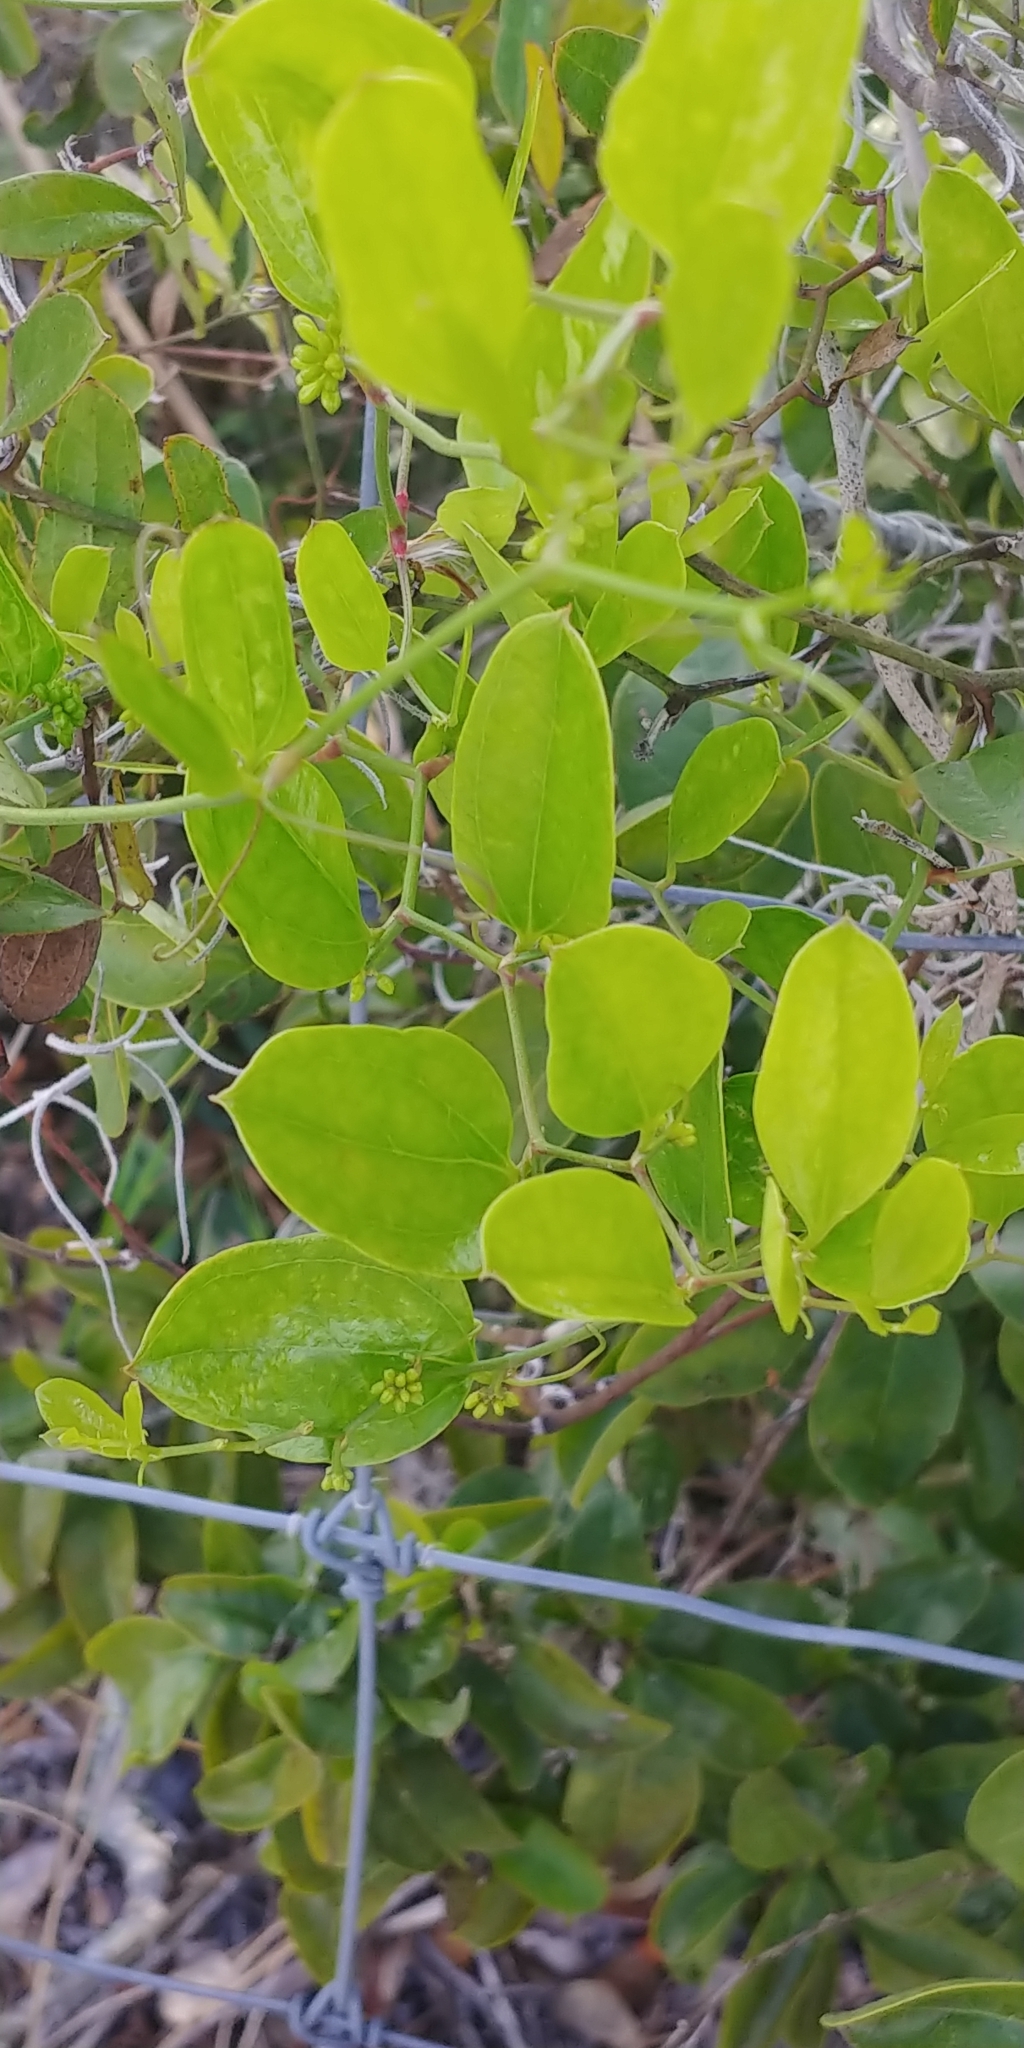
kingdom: Plantae
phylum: Tracheophyta
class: Liliopsida
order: Liliales
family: Smilacaceae
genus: Smilax
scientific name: Smilax auriculata
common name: Wild bamboo
